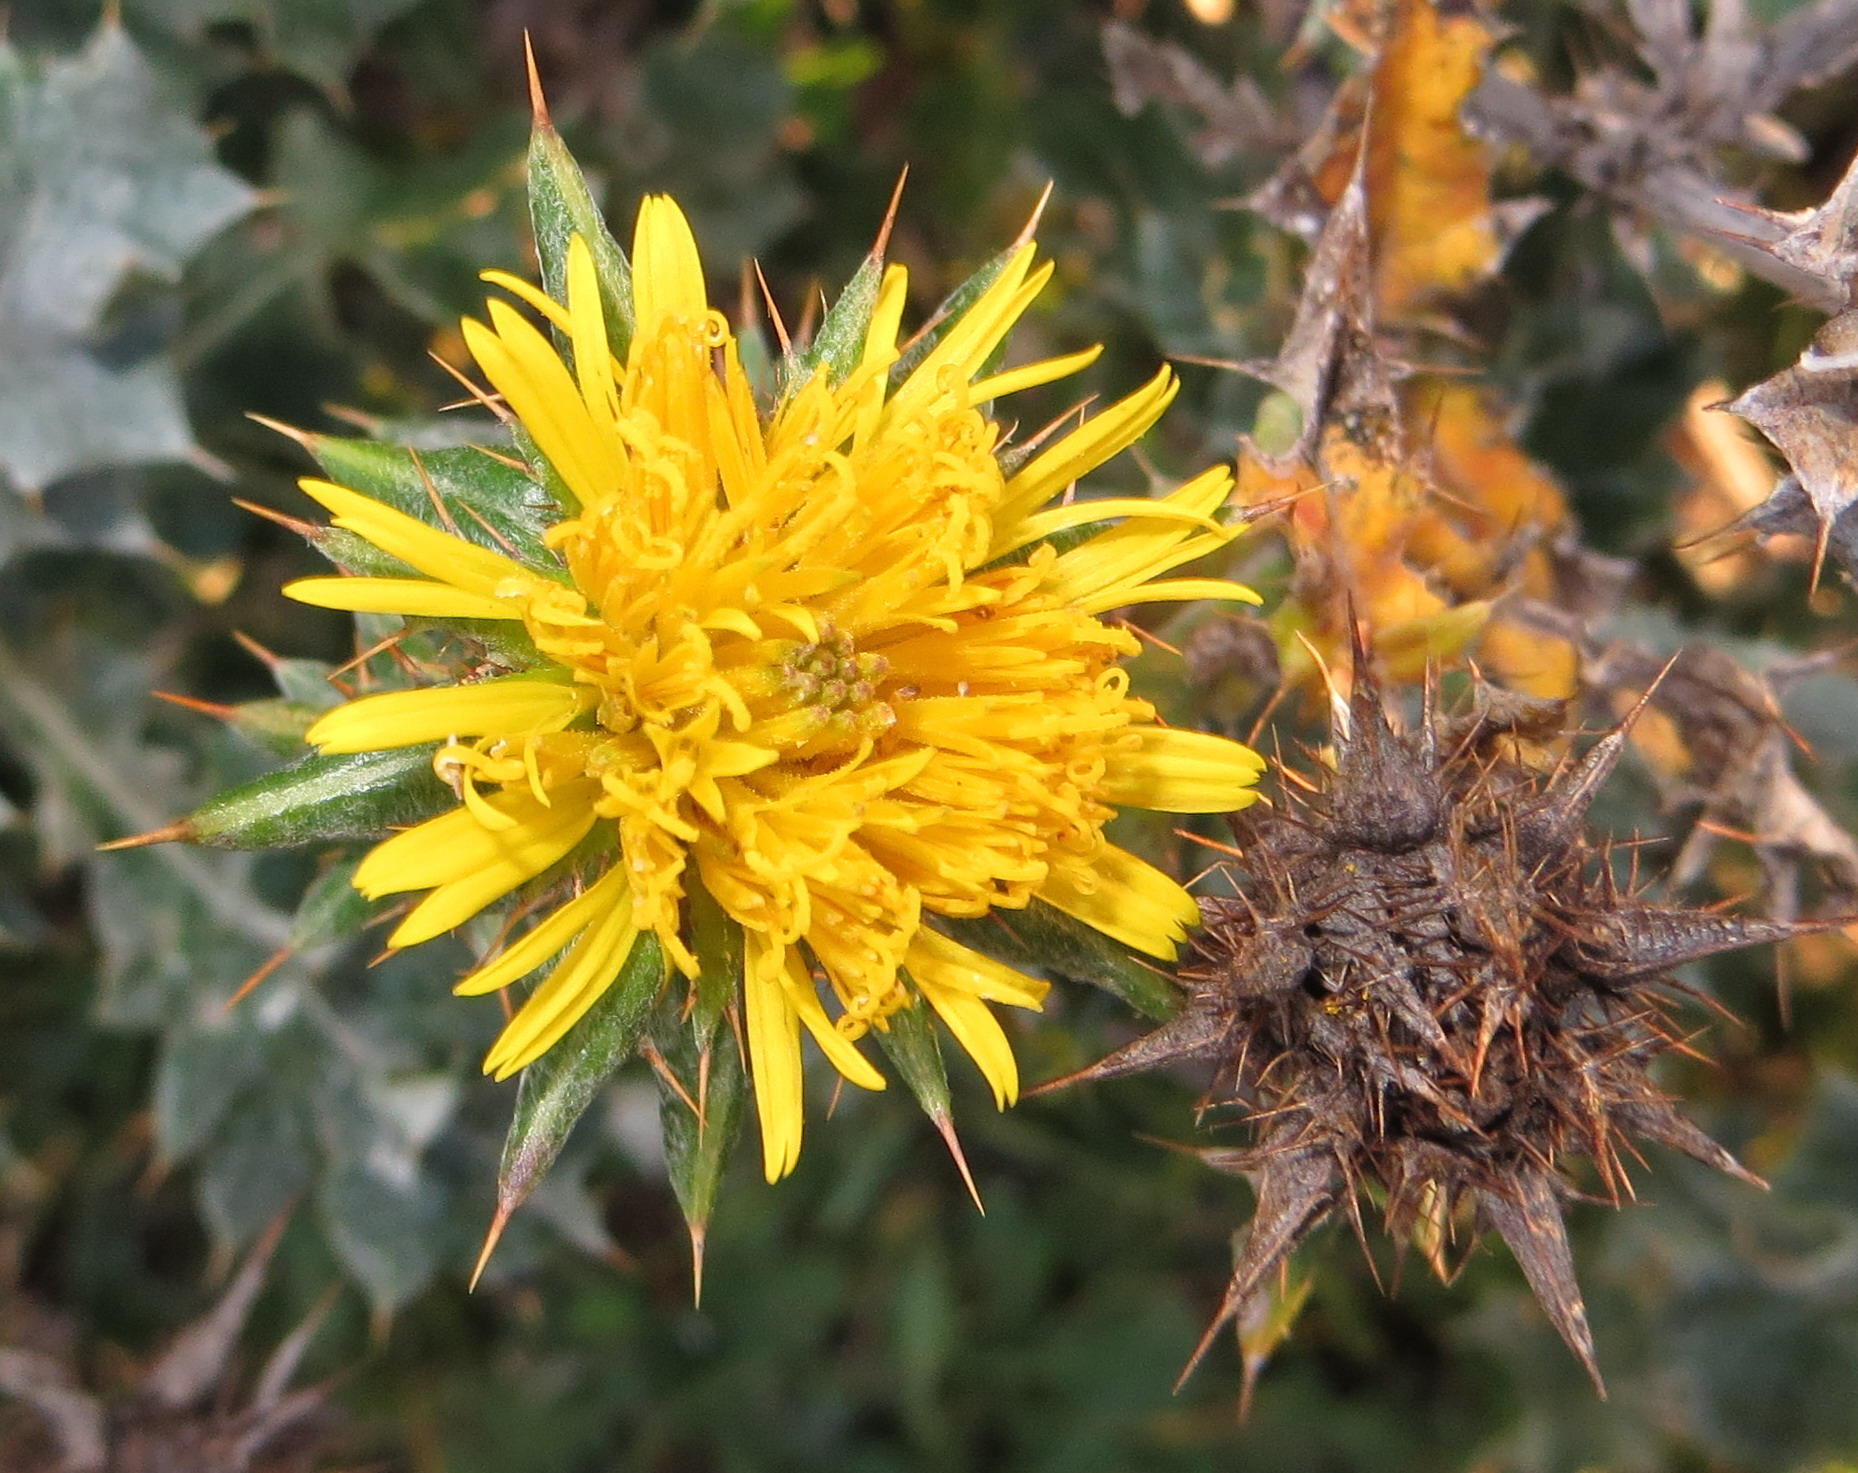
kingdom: Plantae
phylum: Tracheophyta
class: Magnoliopsida
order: Asterales
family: Asteraceae
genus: Berkheya
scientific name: Berkheya heterophylla
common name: Prickly gousblom
